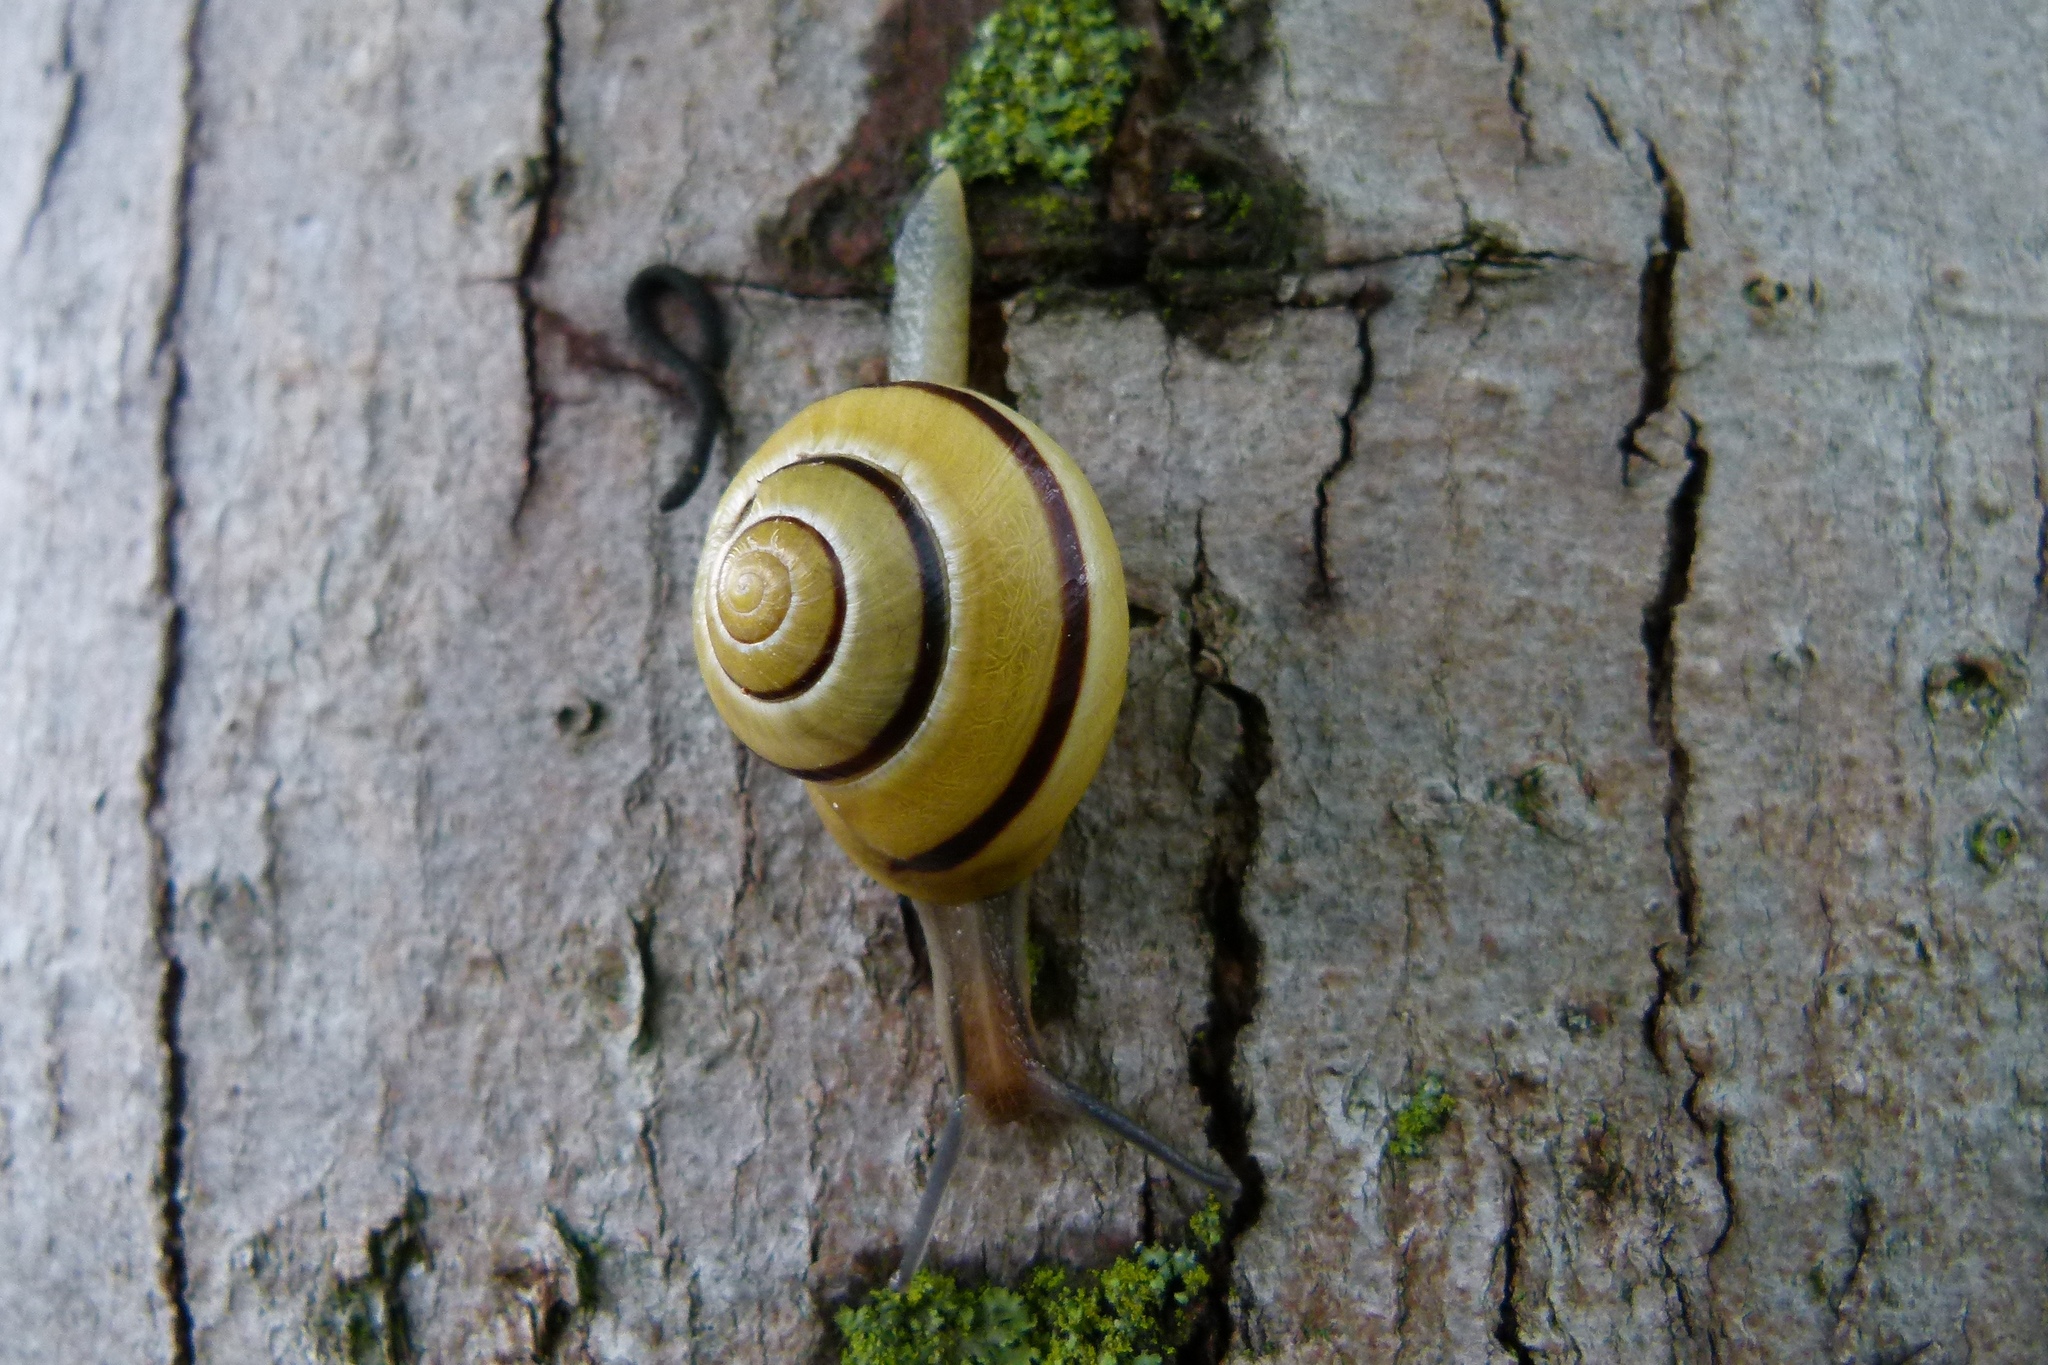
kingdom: Animalia
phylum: Mollusca
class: Gastropoda
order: Stylommatophora
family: Helicidae
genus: Cepaea
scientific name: Cepaea nemoralis
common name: Grovesnail
